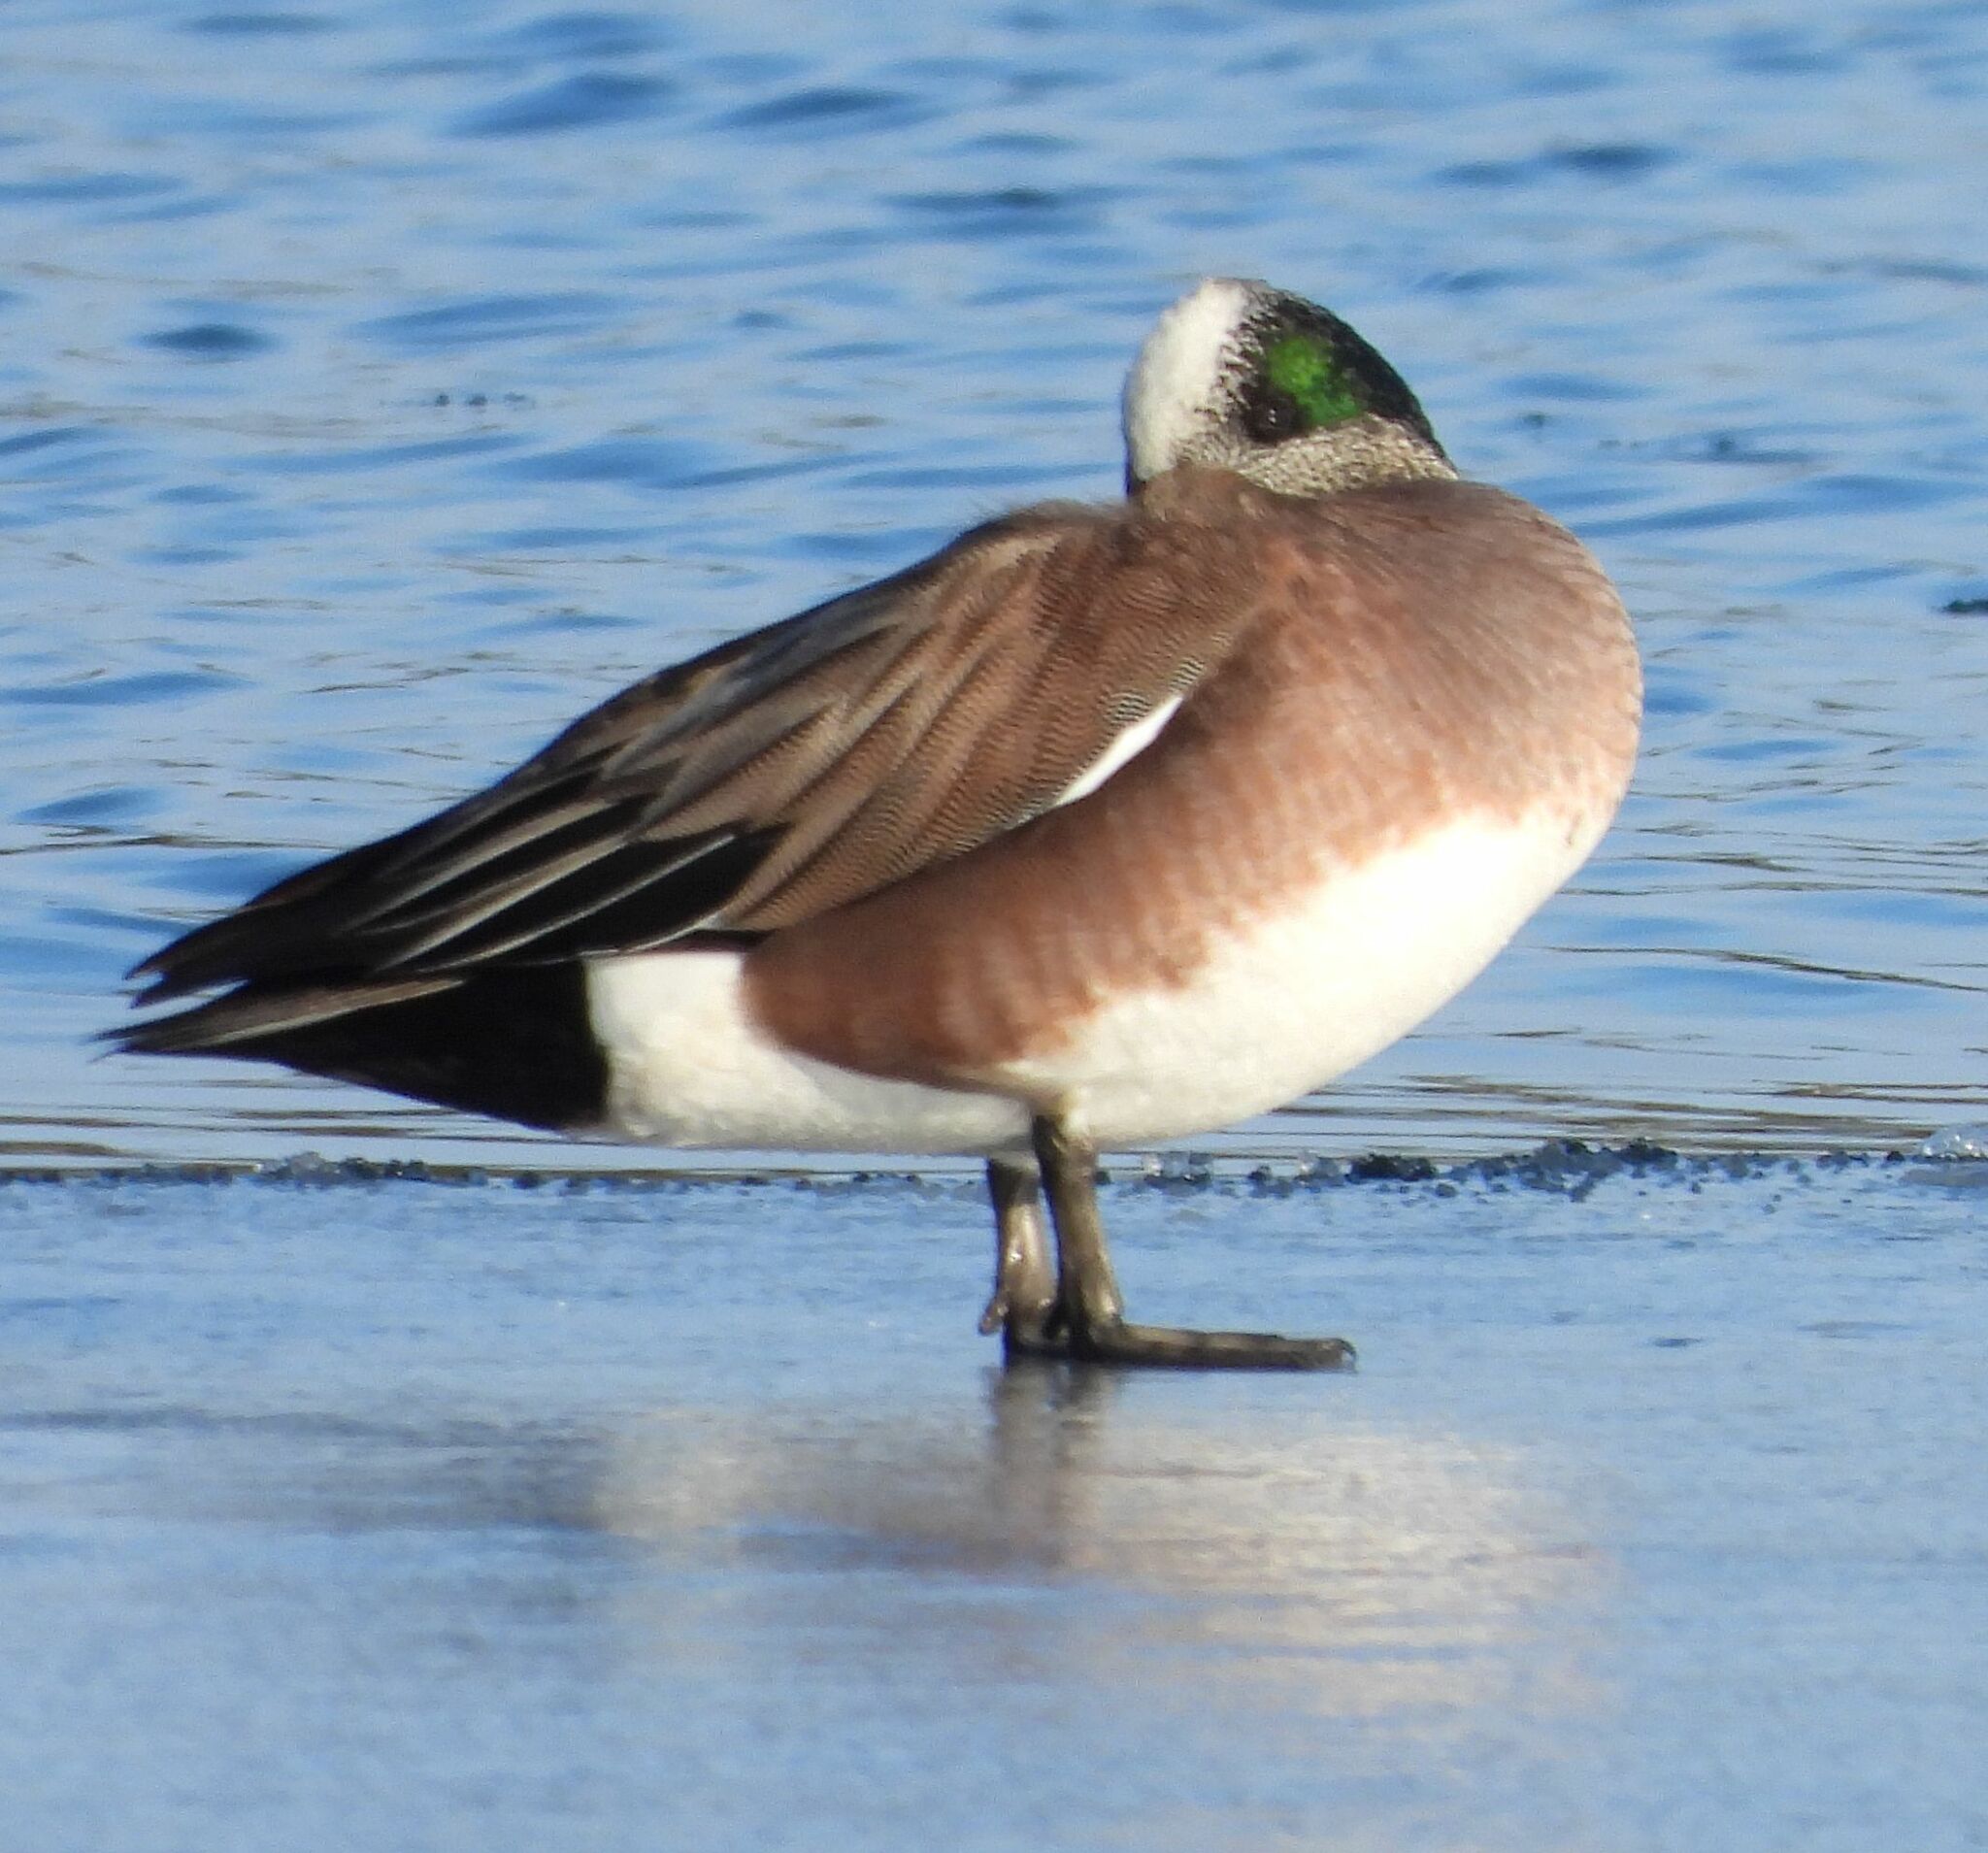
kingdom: Animalia
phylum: Chordata
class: Aves
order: Anseriformes
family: Anatidae
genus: Mareca
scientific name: Mareca americana
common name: American wigeon
